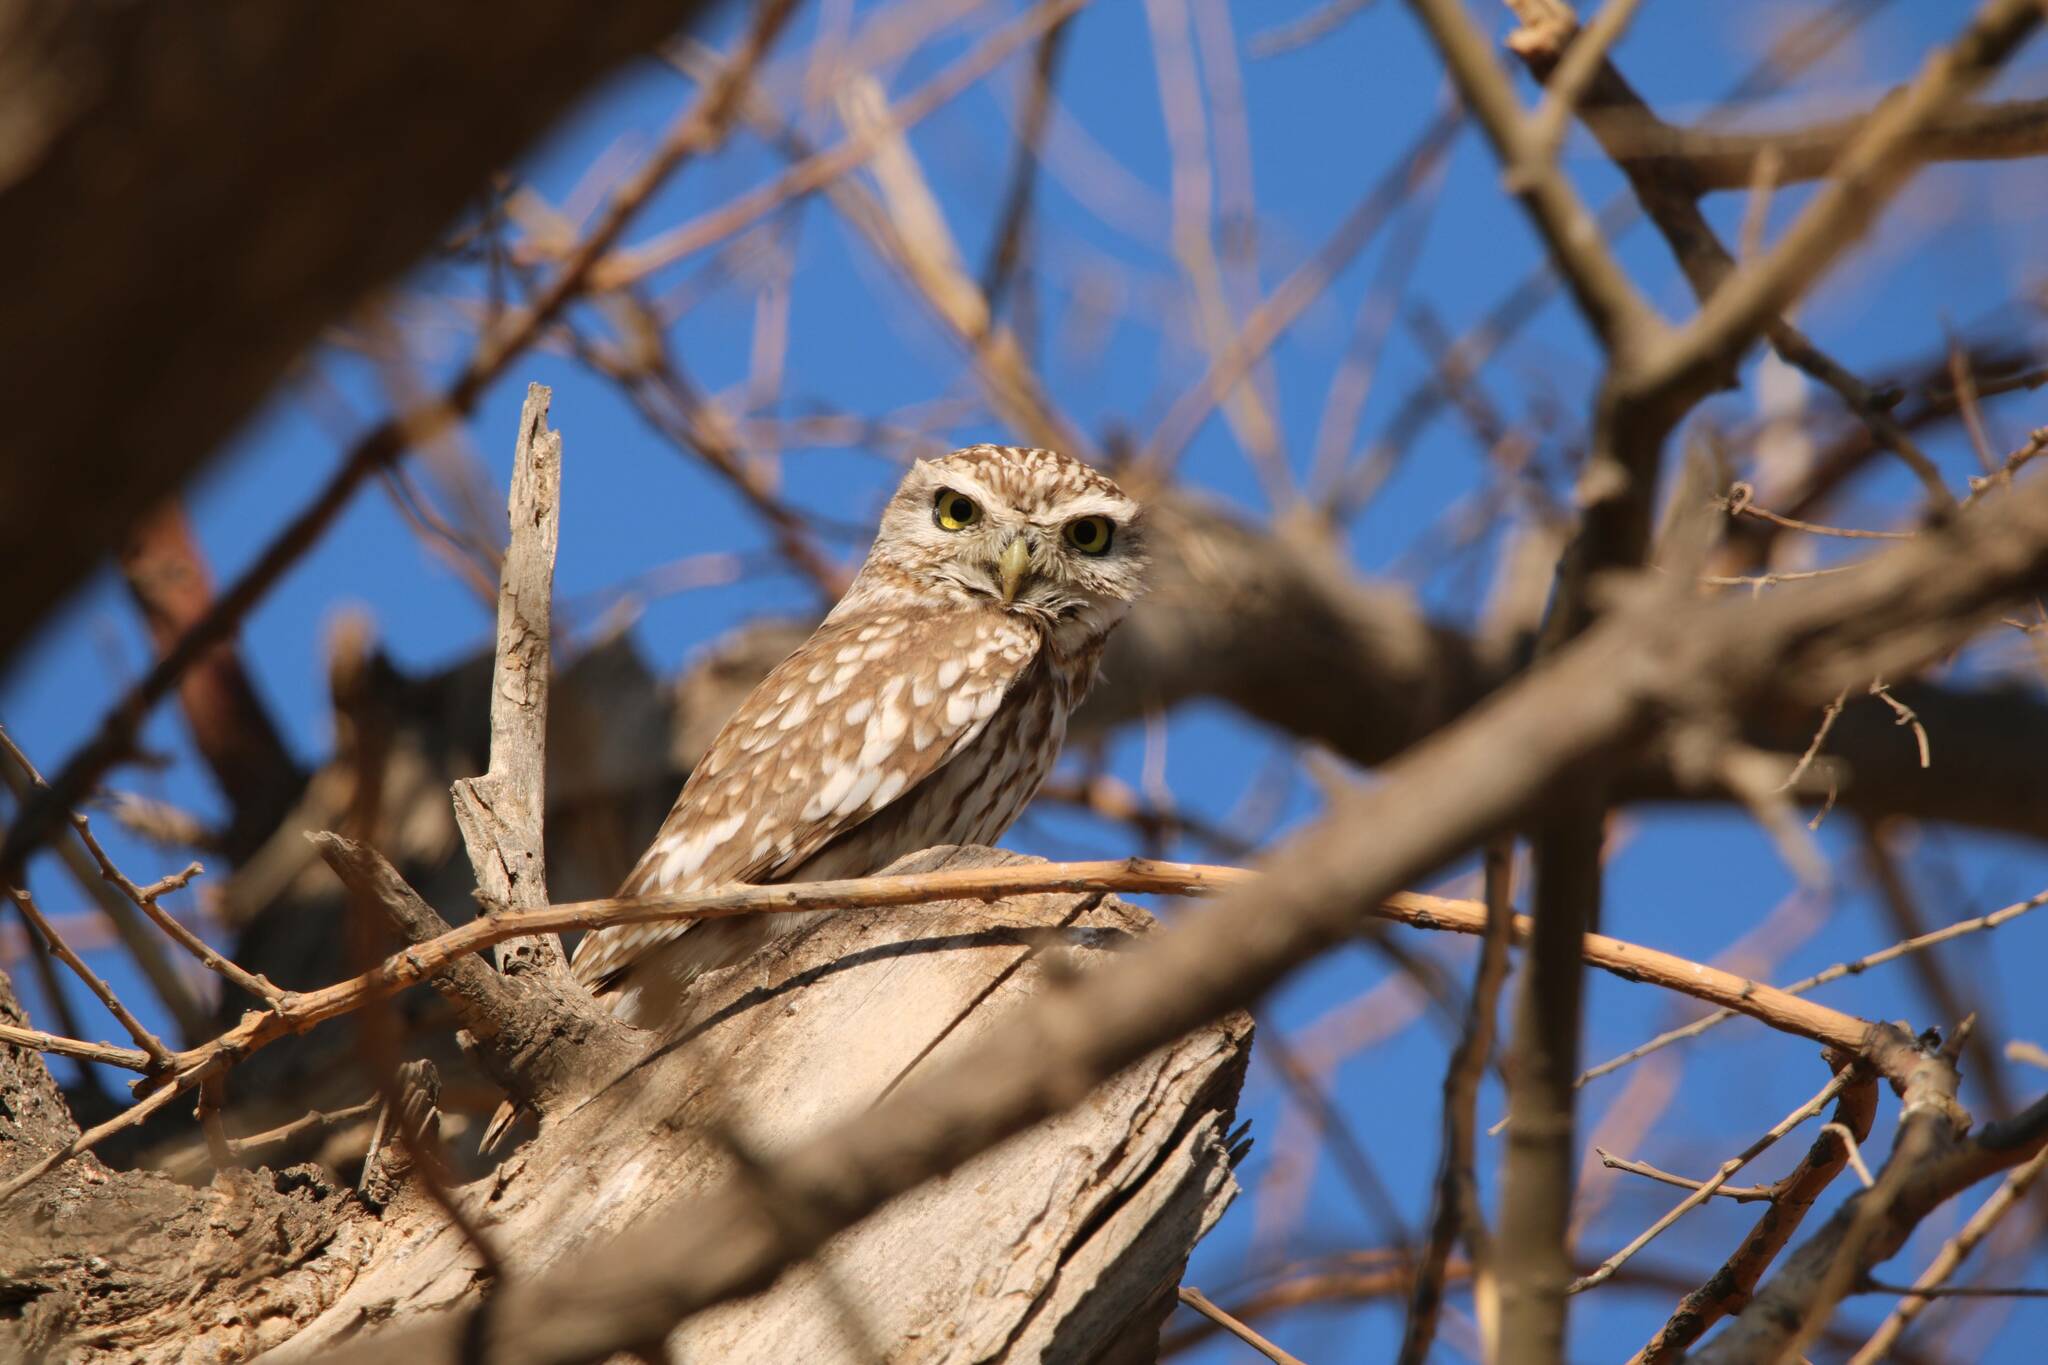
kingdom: Animalia
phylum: Chordata
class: Aves
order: Strigiformes
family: Strigidae
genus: Athene
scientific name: Athene noctua
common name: Little owl
